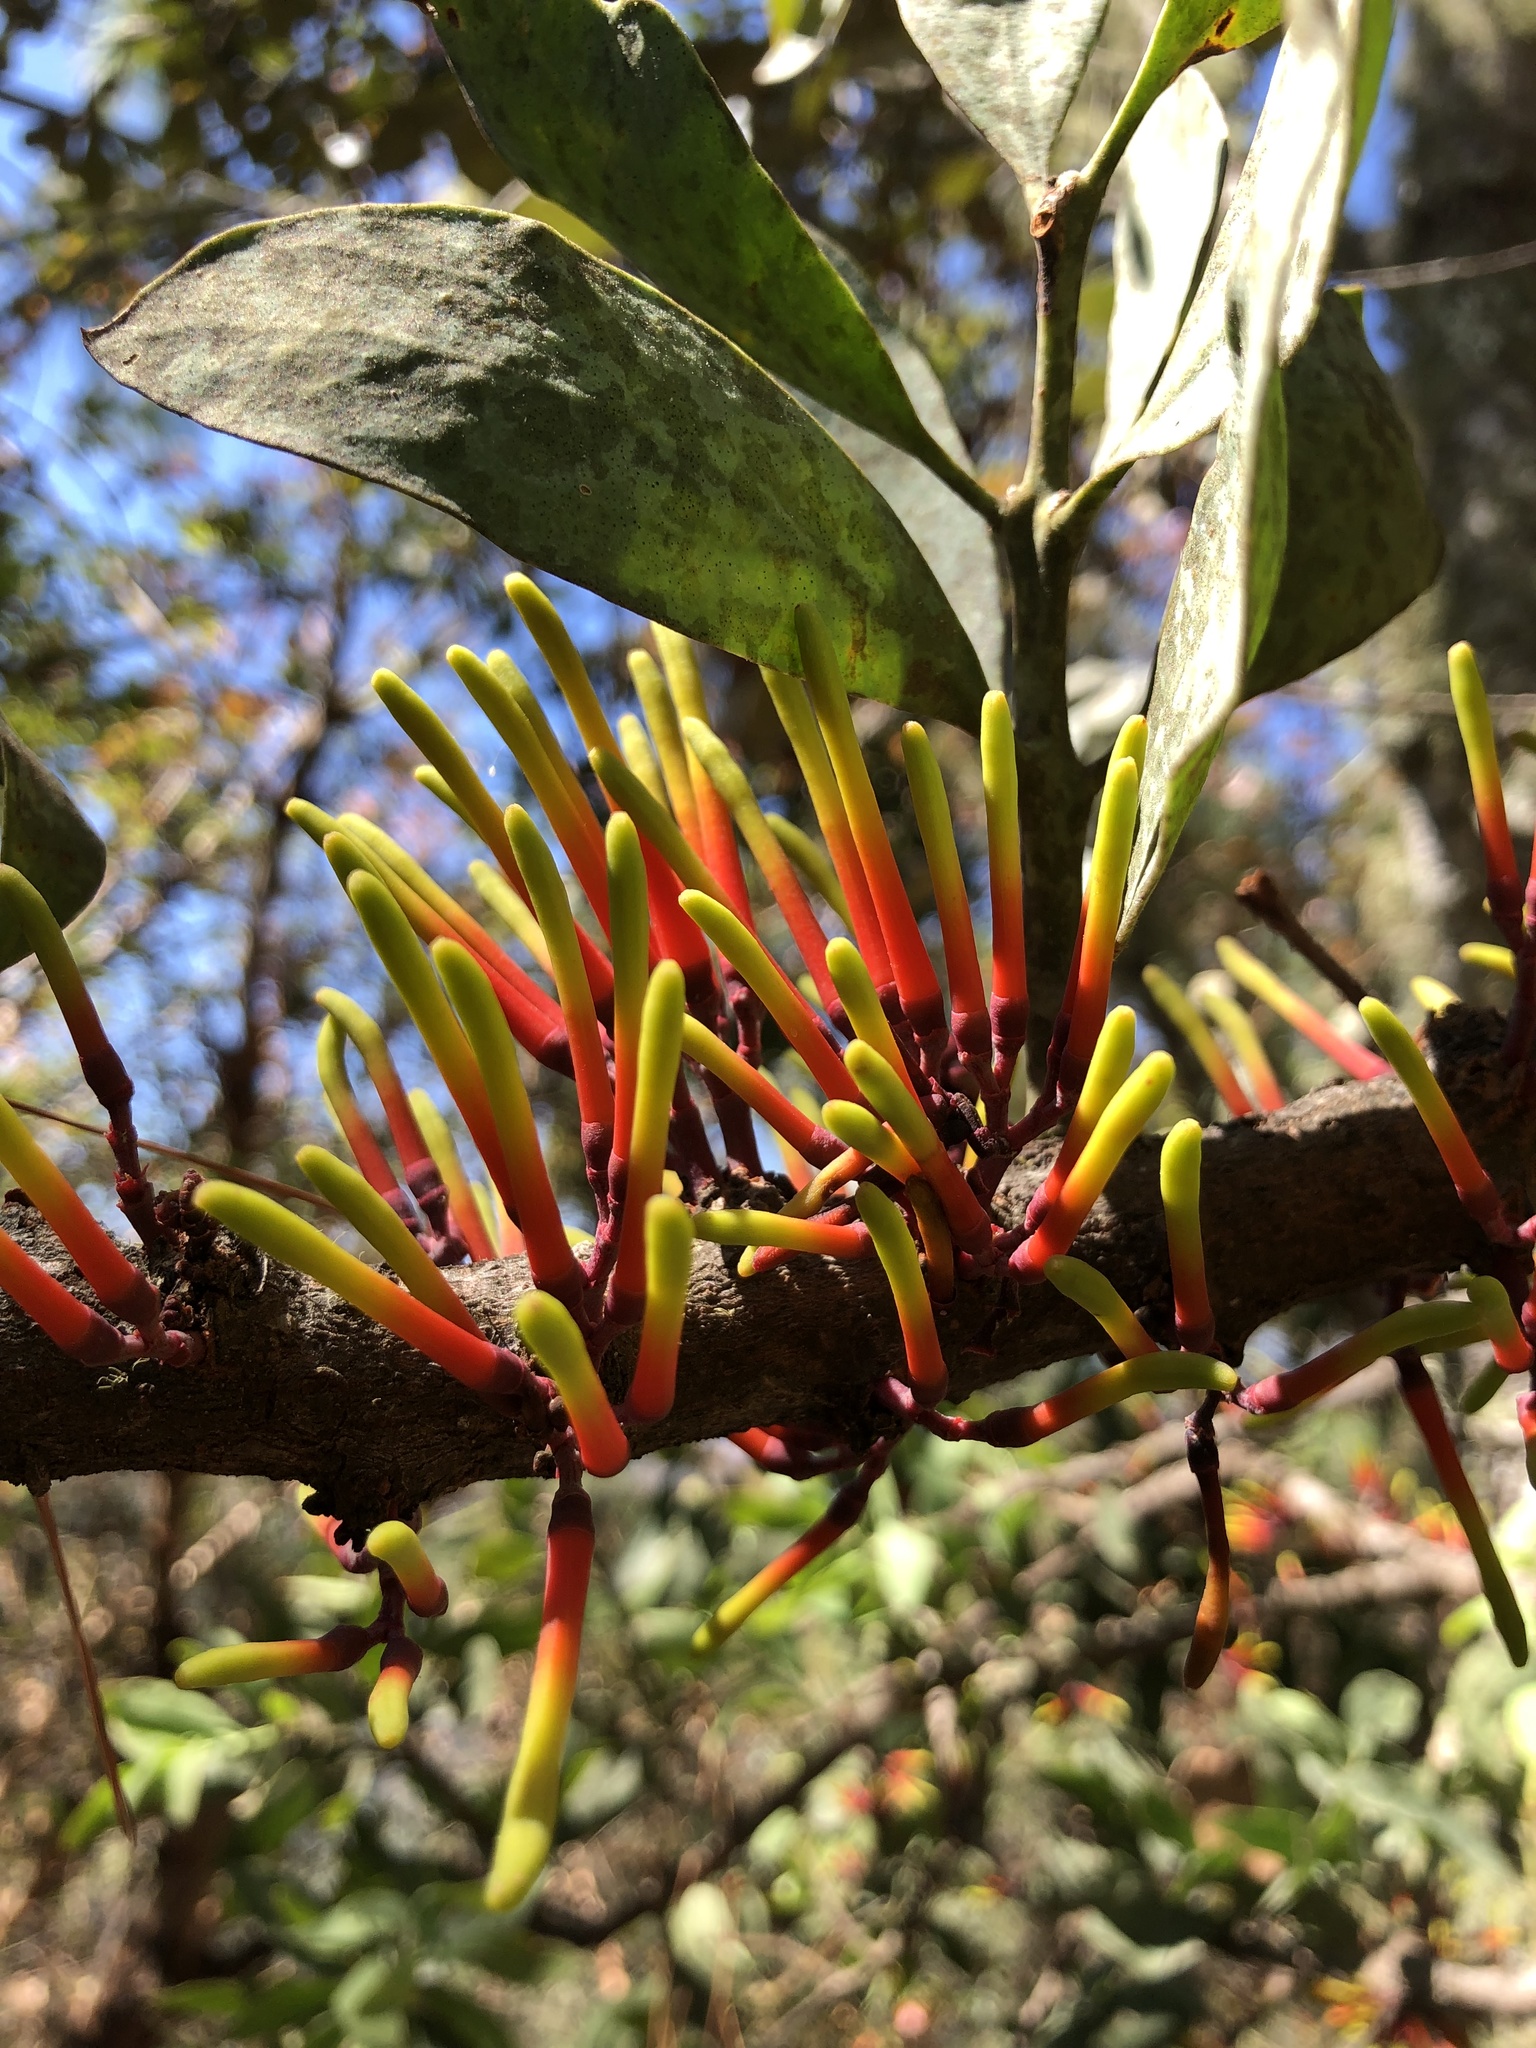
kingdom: Plantae
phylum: Tracheophyta
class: Magnoliopsida
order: Santalales
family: Loranthaceae
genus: Psittacanthus
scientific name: Psittacanthus calyculatus
